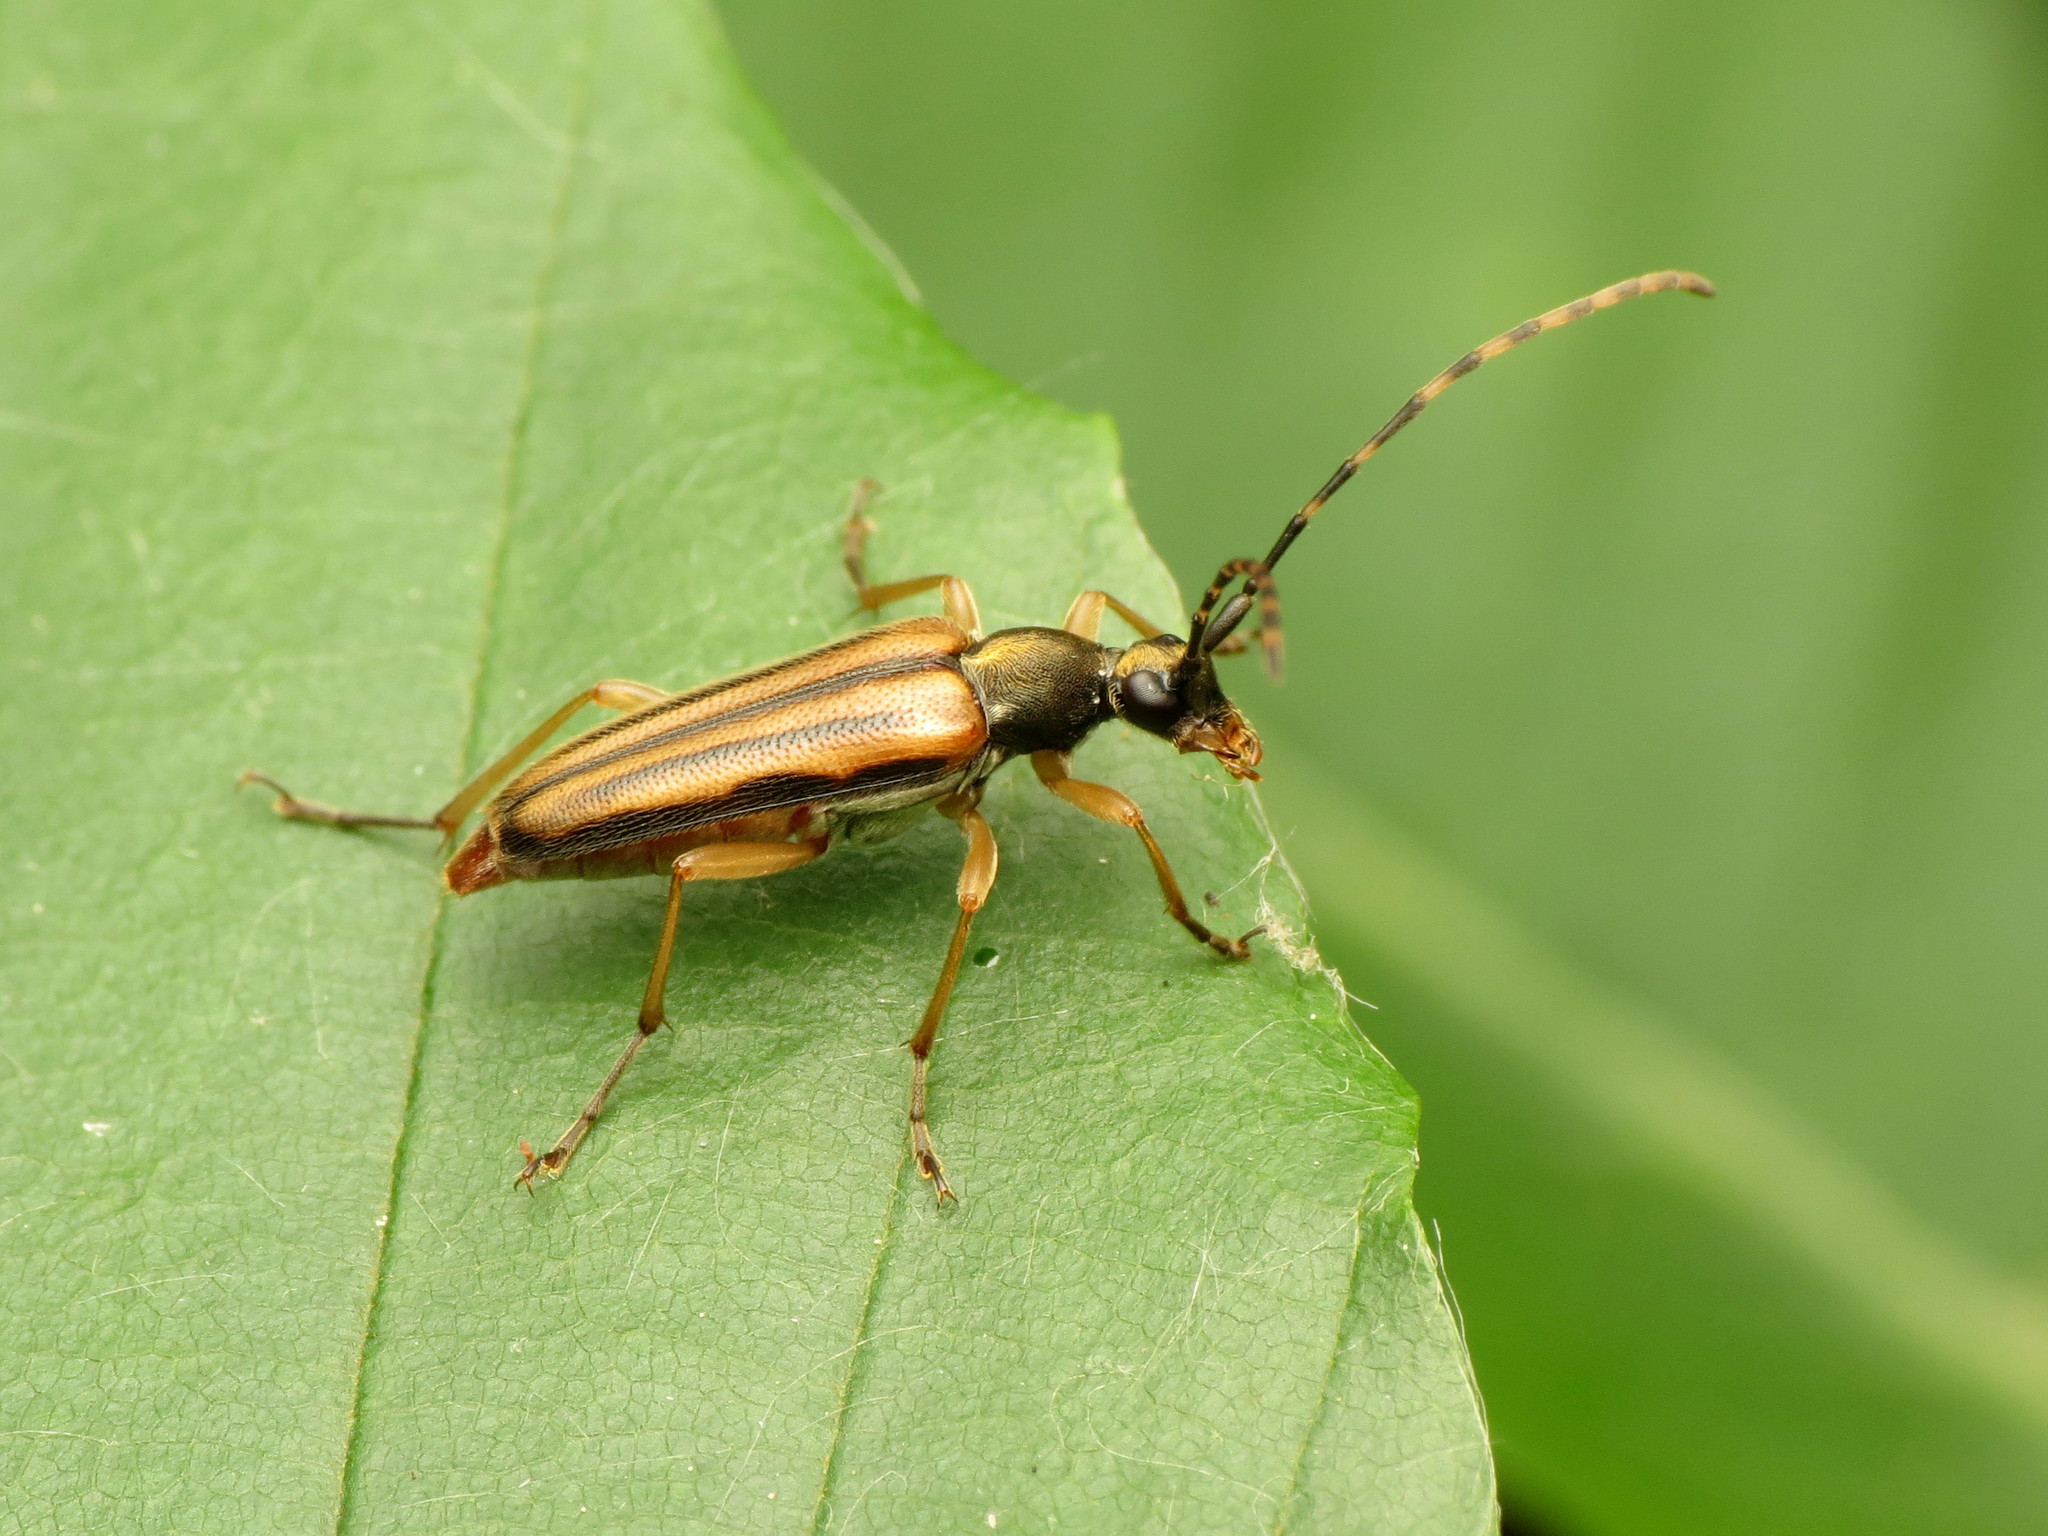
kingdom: Animalia
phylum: Arthropoda
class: Insecta
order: Coleoptera
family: Cerambycidae
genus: Analeptura
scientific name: Analeptura lineola
